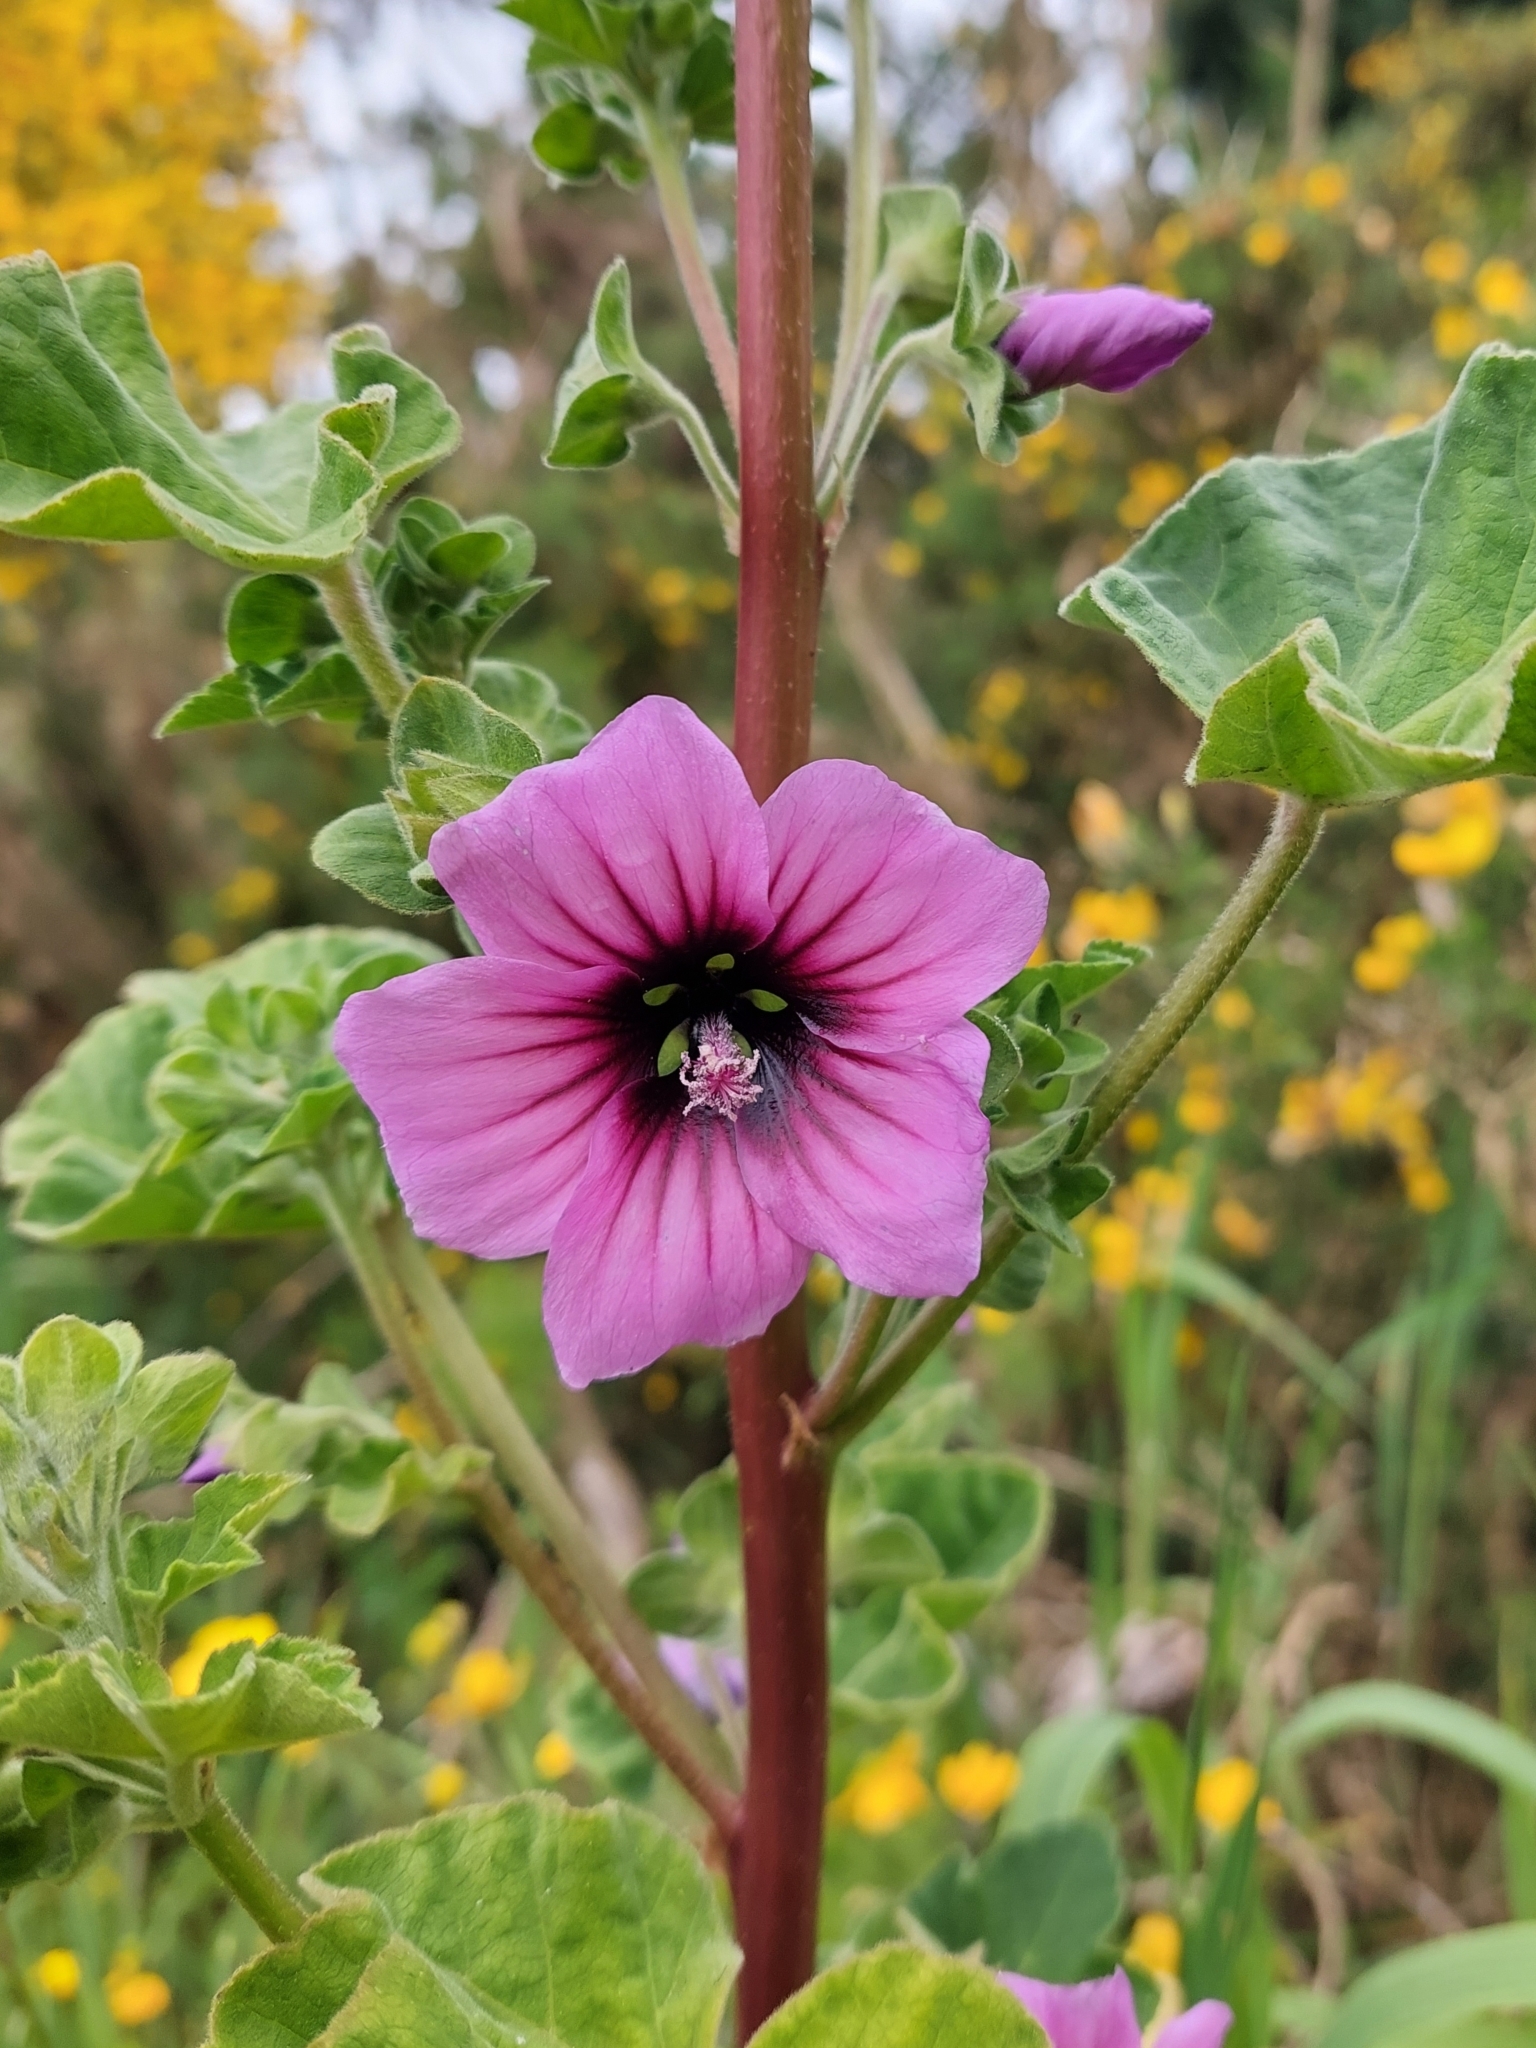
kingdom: Plantae
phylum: Tracheophyta
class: Magnoliopsida
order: Malvales
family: Malvaceae
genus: Malva
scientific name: Malva arborea
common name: Tree mallow
